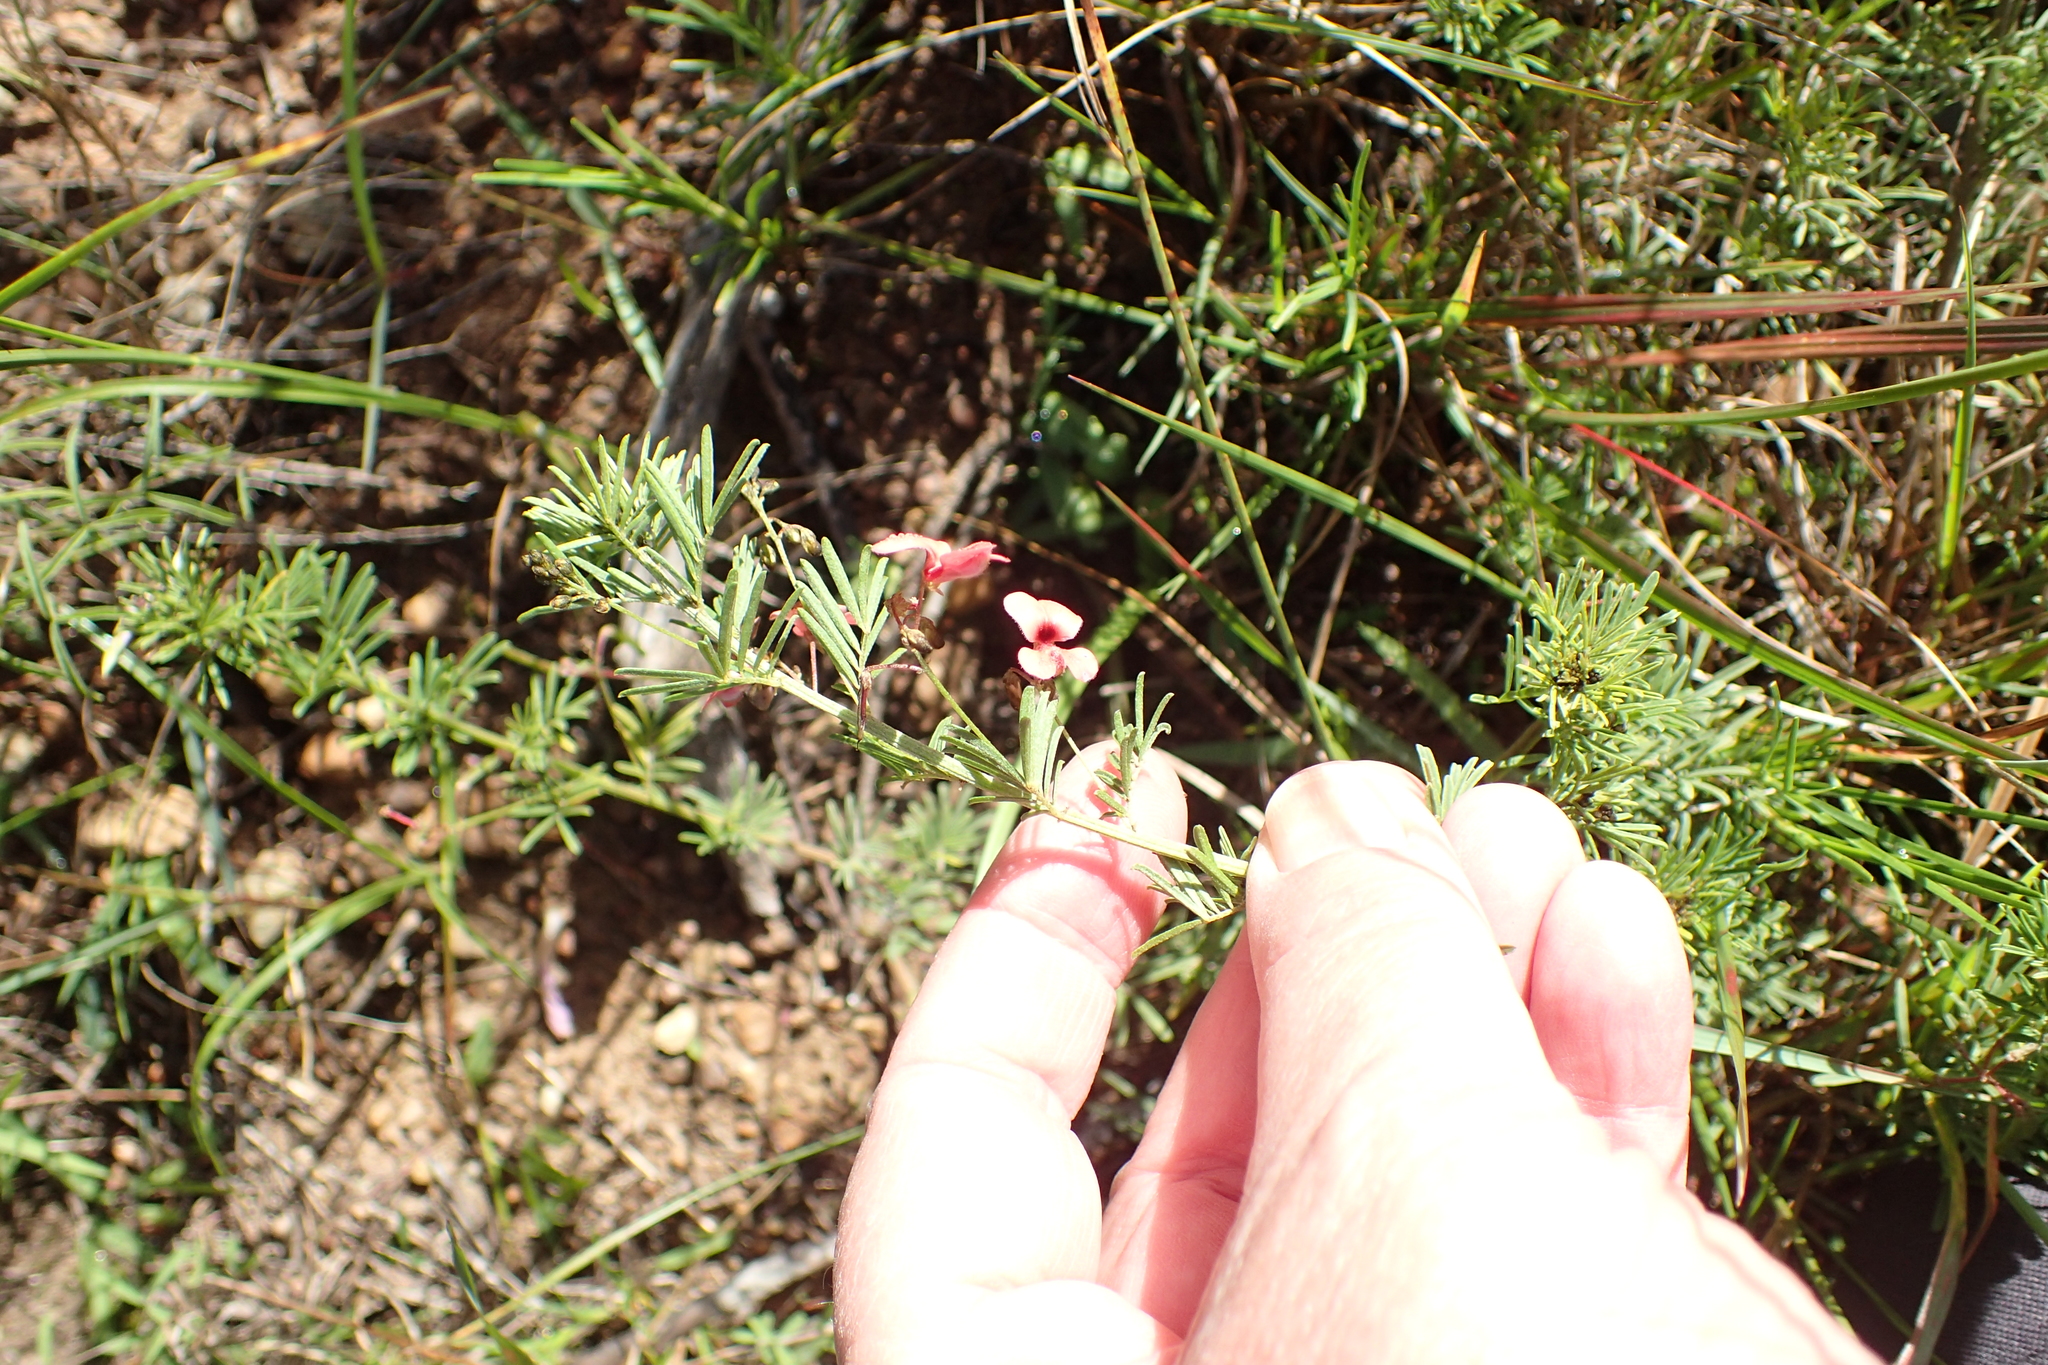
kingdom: Plantae
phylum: Tracheophyta
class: Magnoliopsida
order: Fabales
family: Fabaceae
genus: Indigofera
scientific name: Indigofera verrucosa
